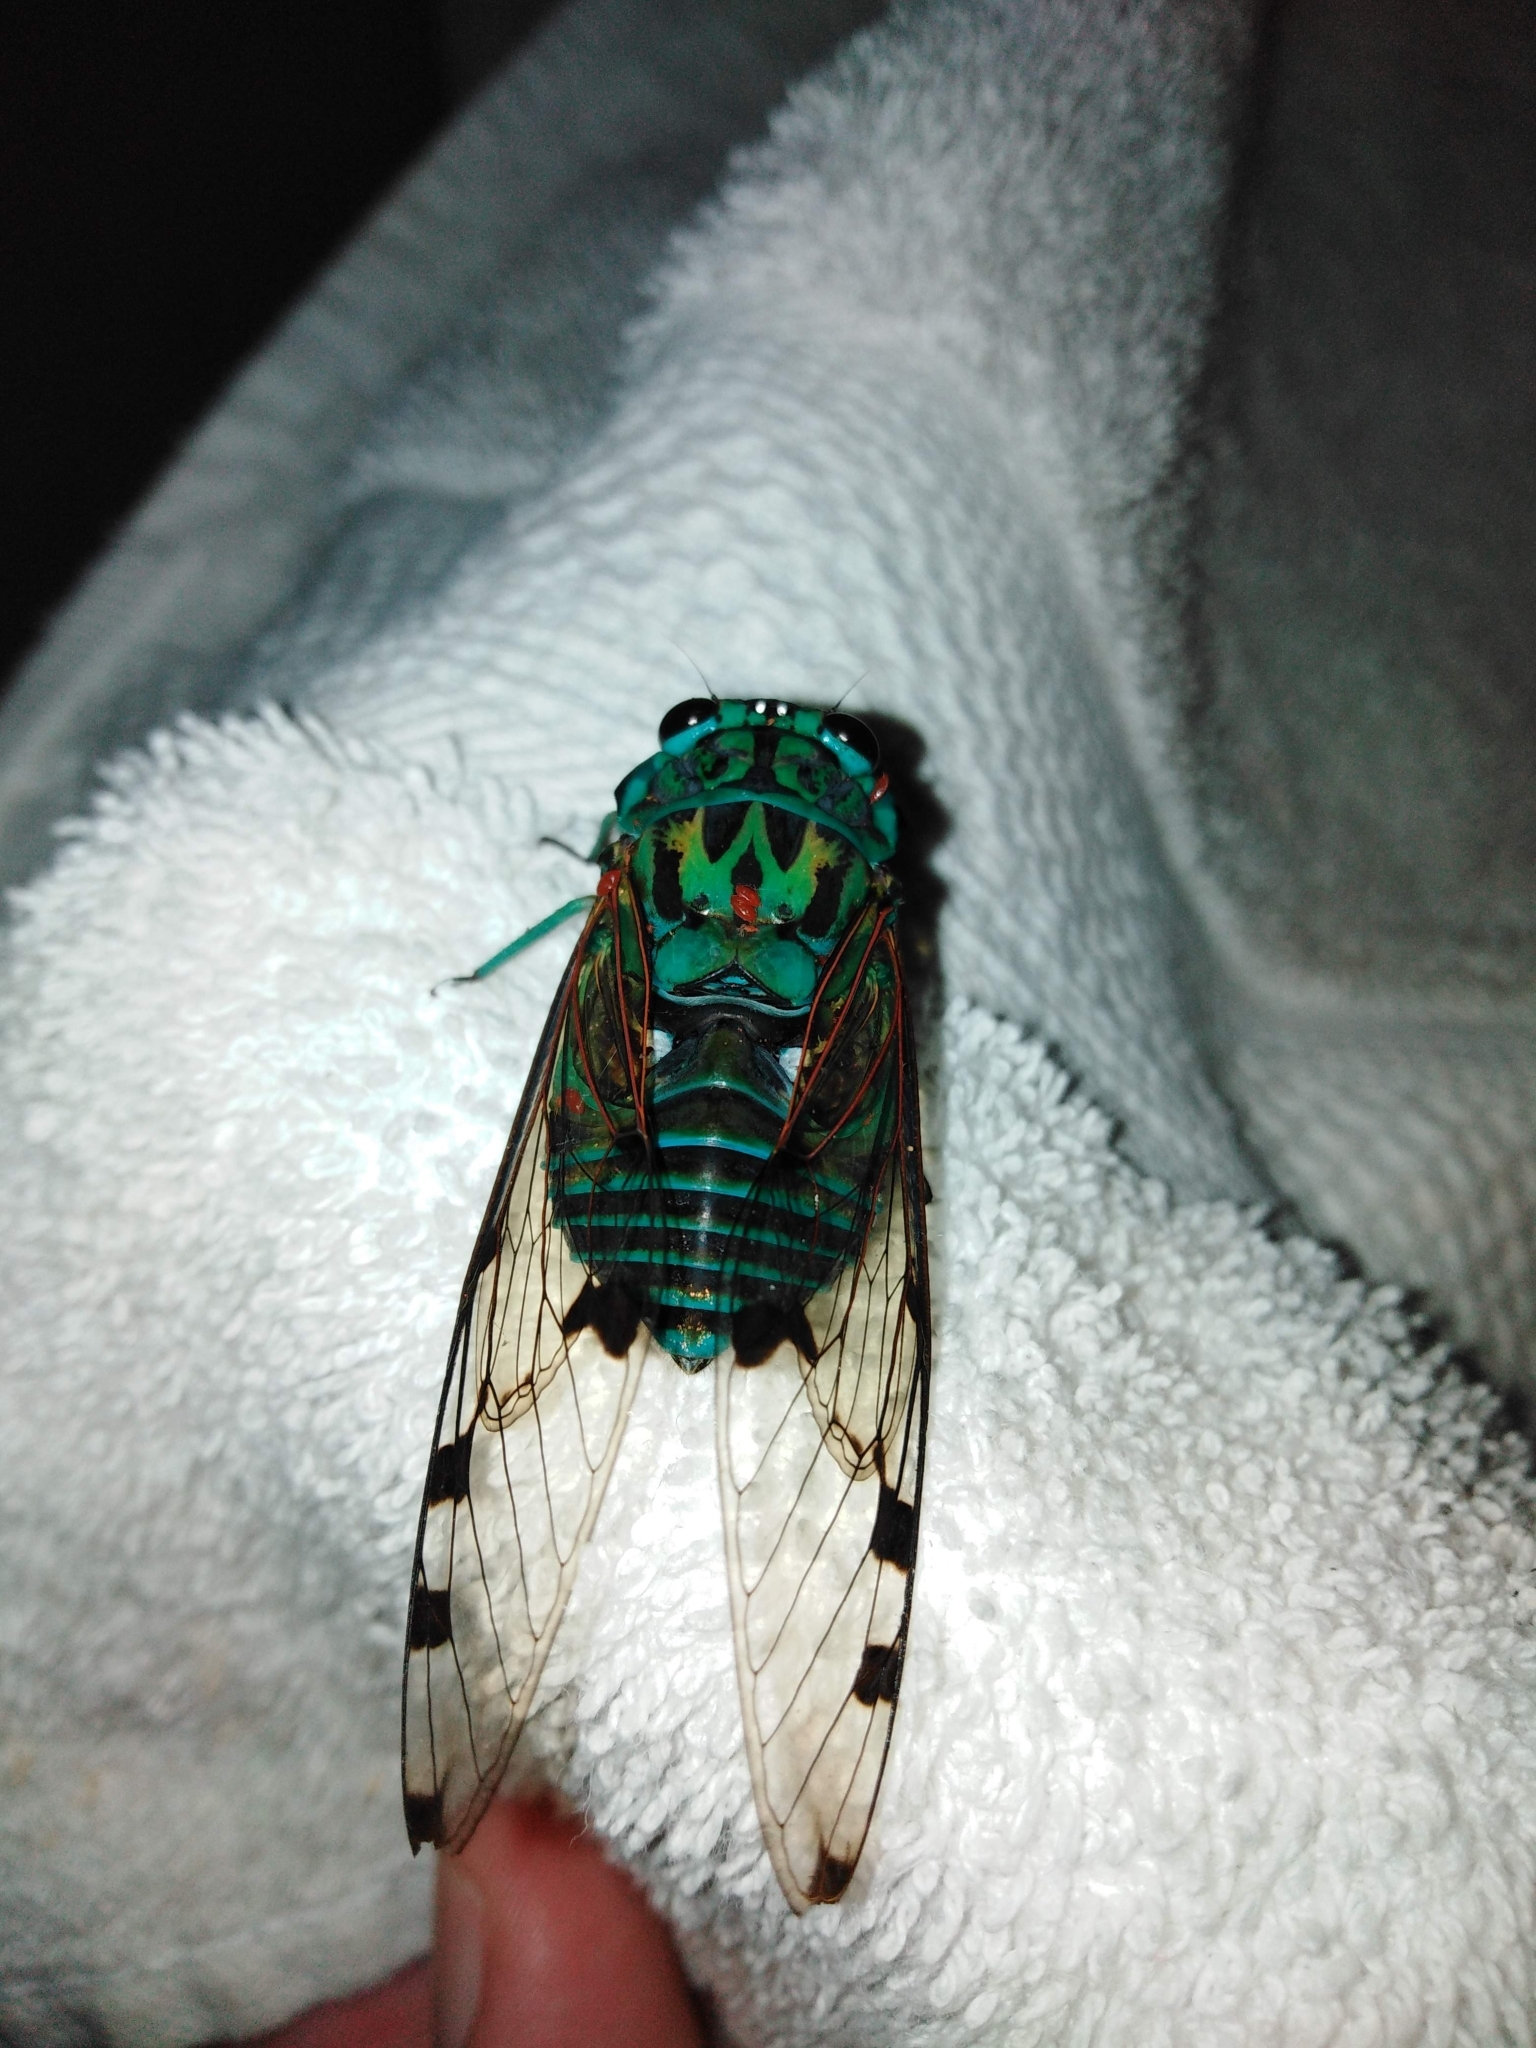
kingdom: Animalia
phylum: Arthropoda
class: Insecta
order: Hemiptera
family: Cicadidae
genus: Zammara
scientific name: Zammara smaragdula
